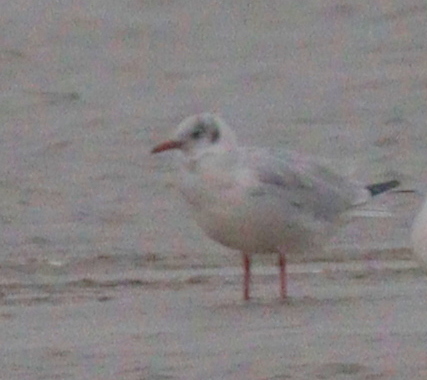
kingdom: Animalia
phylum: Chordata
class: Aves
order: Charadriiformes
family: Laridae
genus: Chroicocephalus
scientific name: Chroicocephalus ridibundus
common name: Black-headed gull
